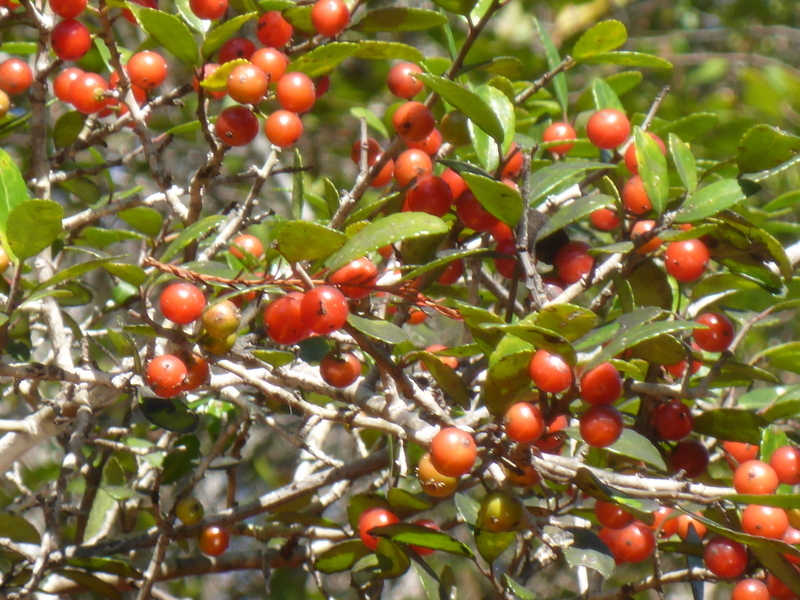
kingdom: Plantae
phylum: Tracheophyta
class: Magnoliopsida
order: Aquifoliales
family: Aquifoliaceae
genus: Ilex
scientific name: Ilex vomitoria
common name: Yaupon holly
